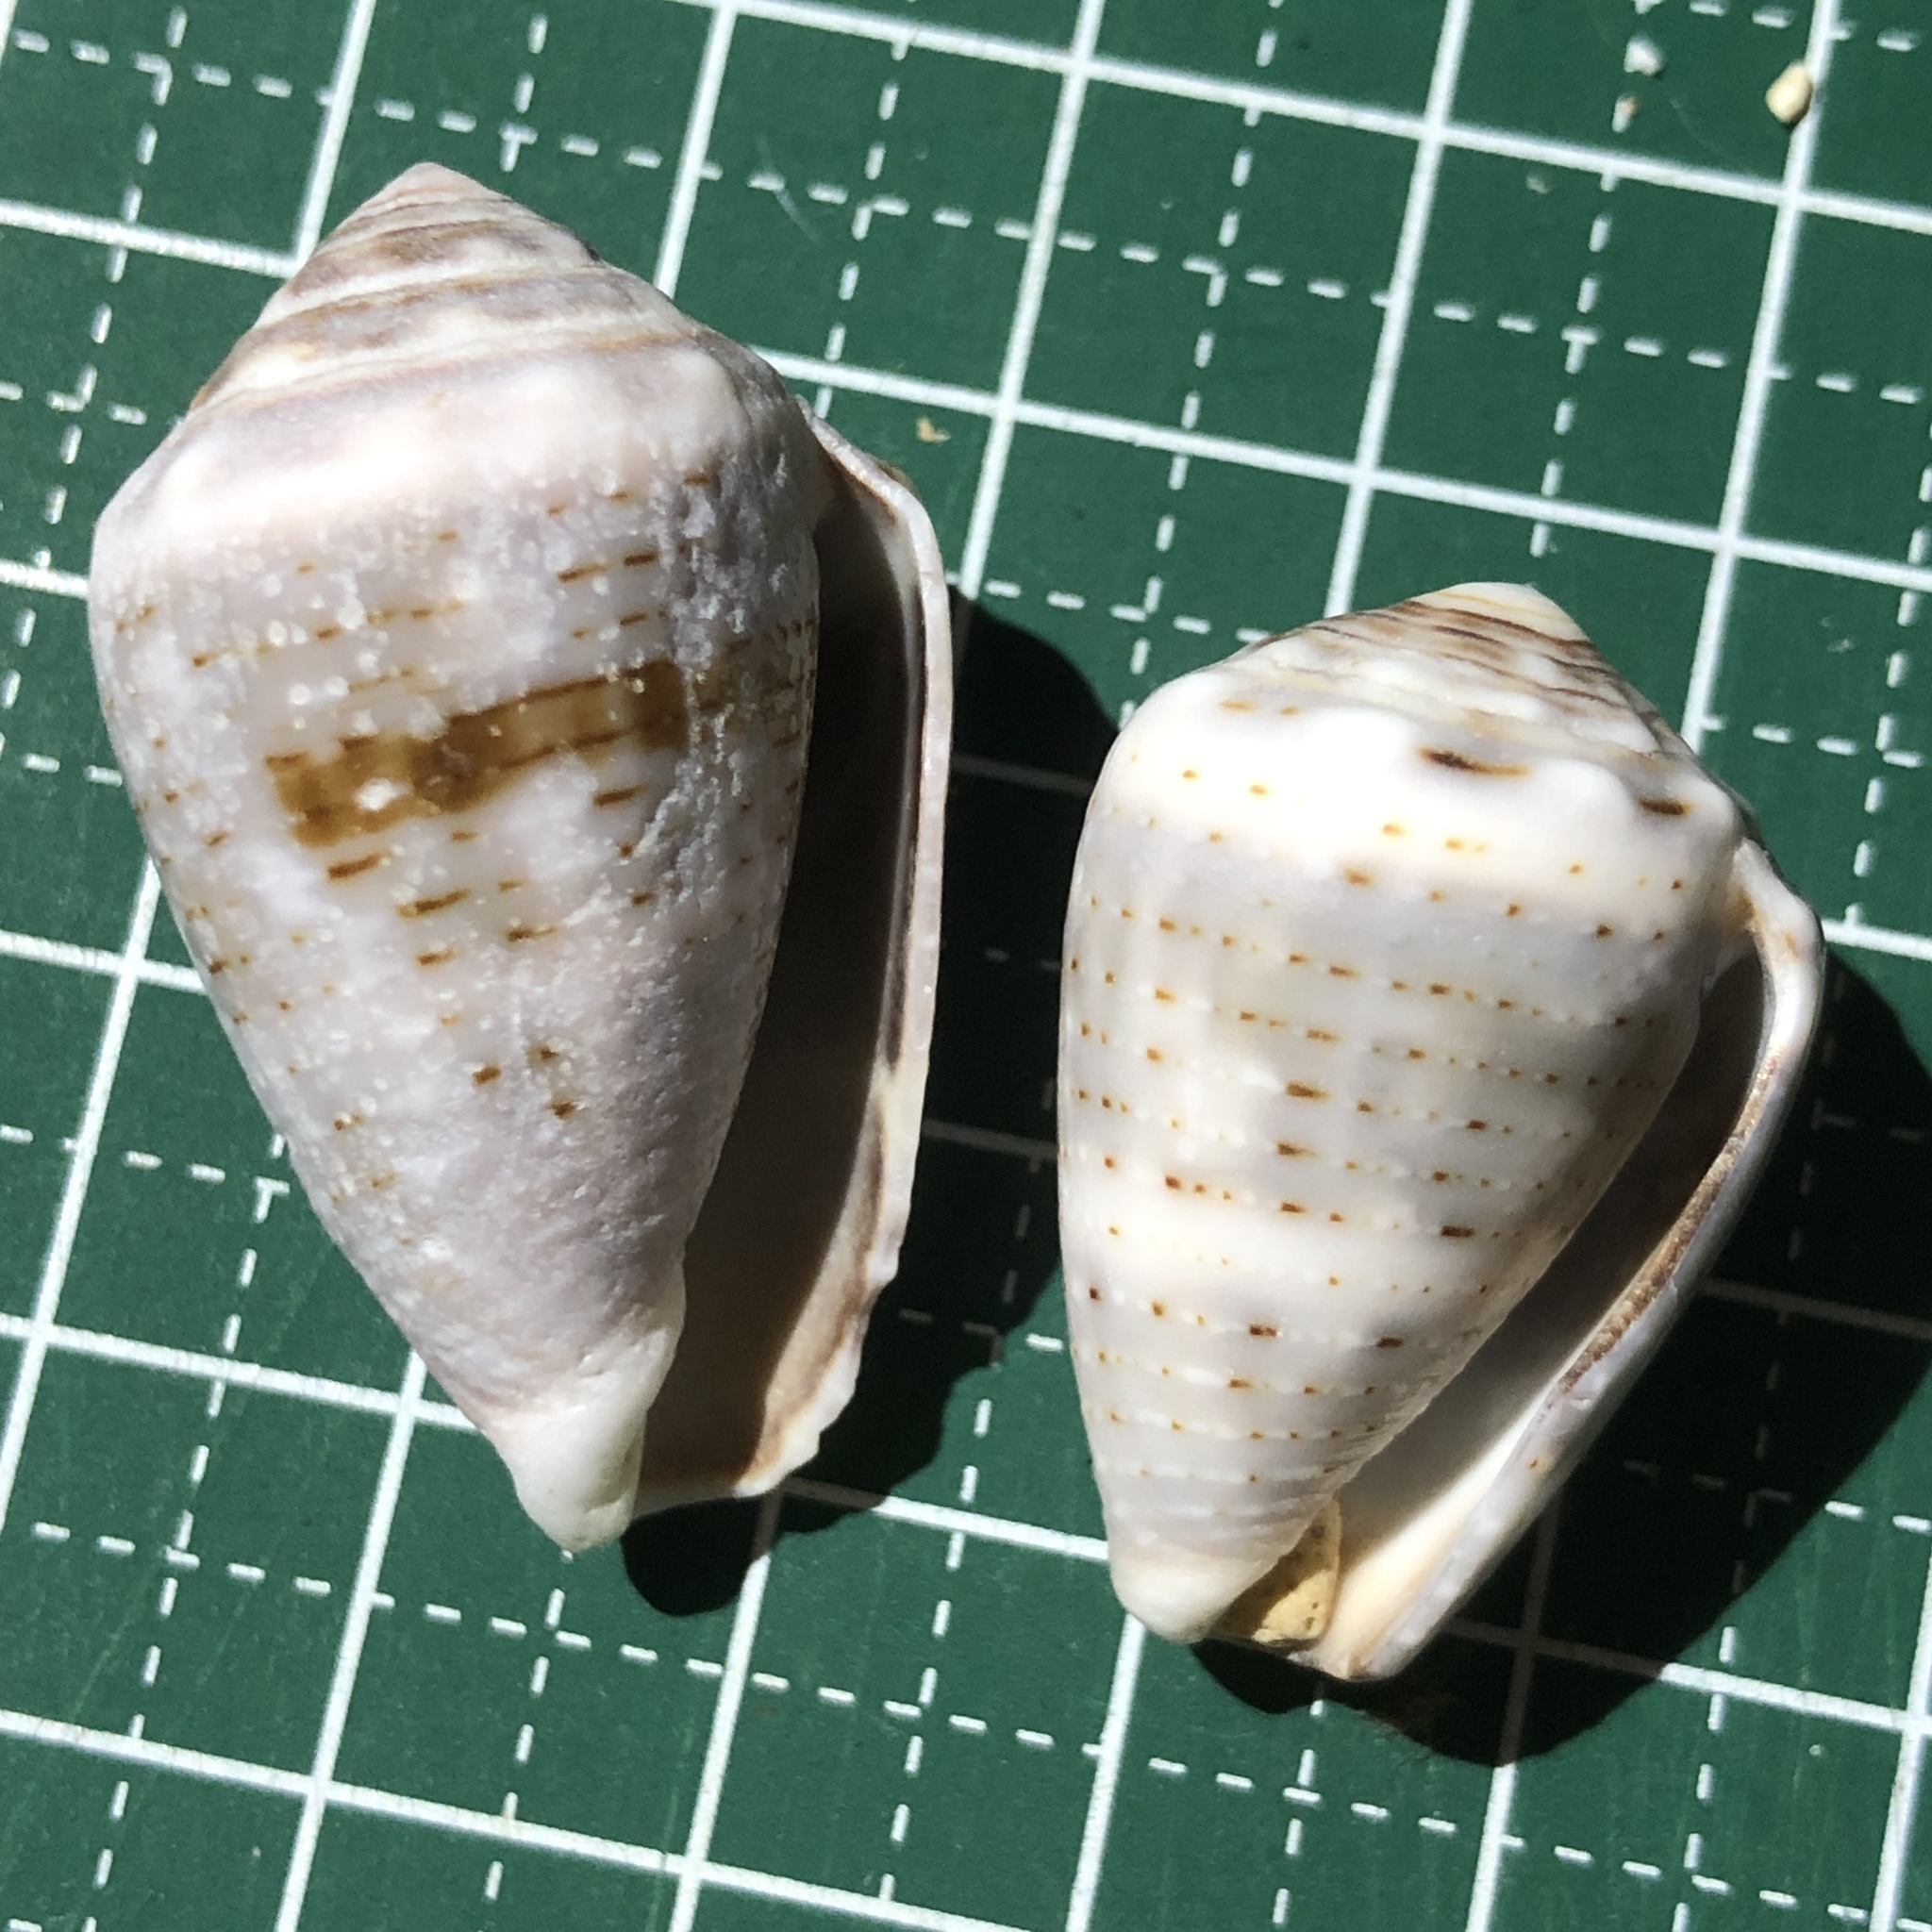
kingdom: Animalia
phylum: Mollusca
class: Gastropoda
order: Neogastropoda
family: Conidae
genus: Conus
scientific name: Conus coronatus
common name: Coronated cone
